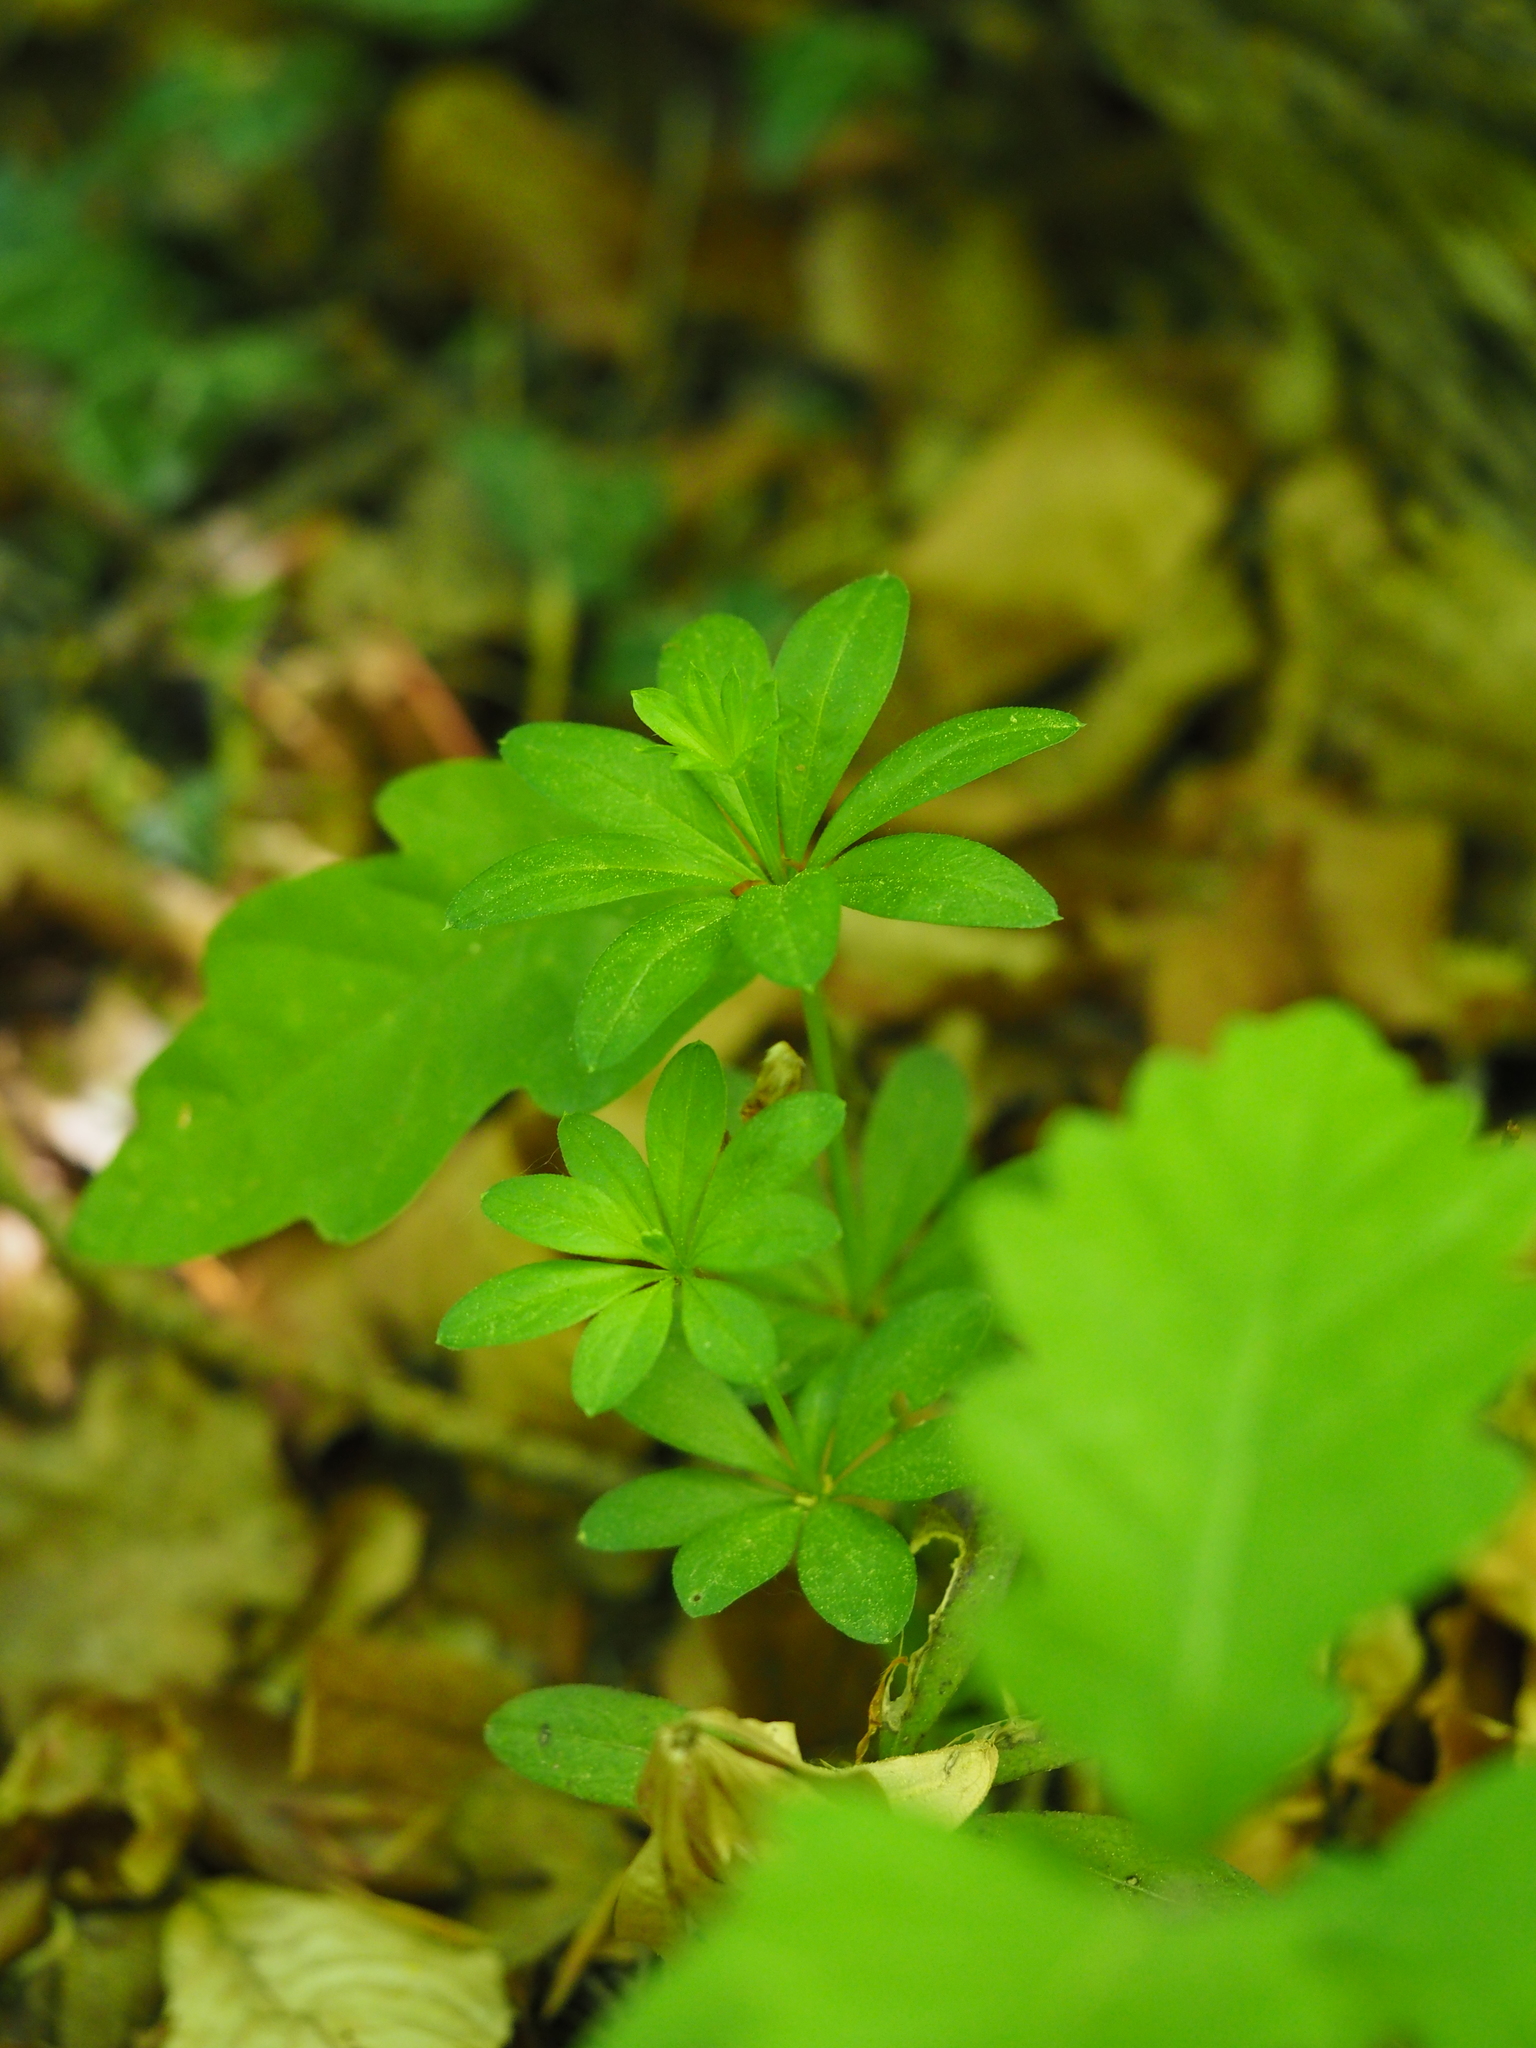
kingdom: Plantae
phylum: Tracheophyta
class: Magnoliopsida
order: Gentianales
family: Rubiaceae
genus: Galium
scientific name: Galium odoratum
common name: Sweet woodruff
